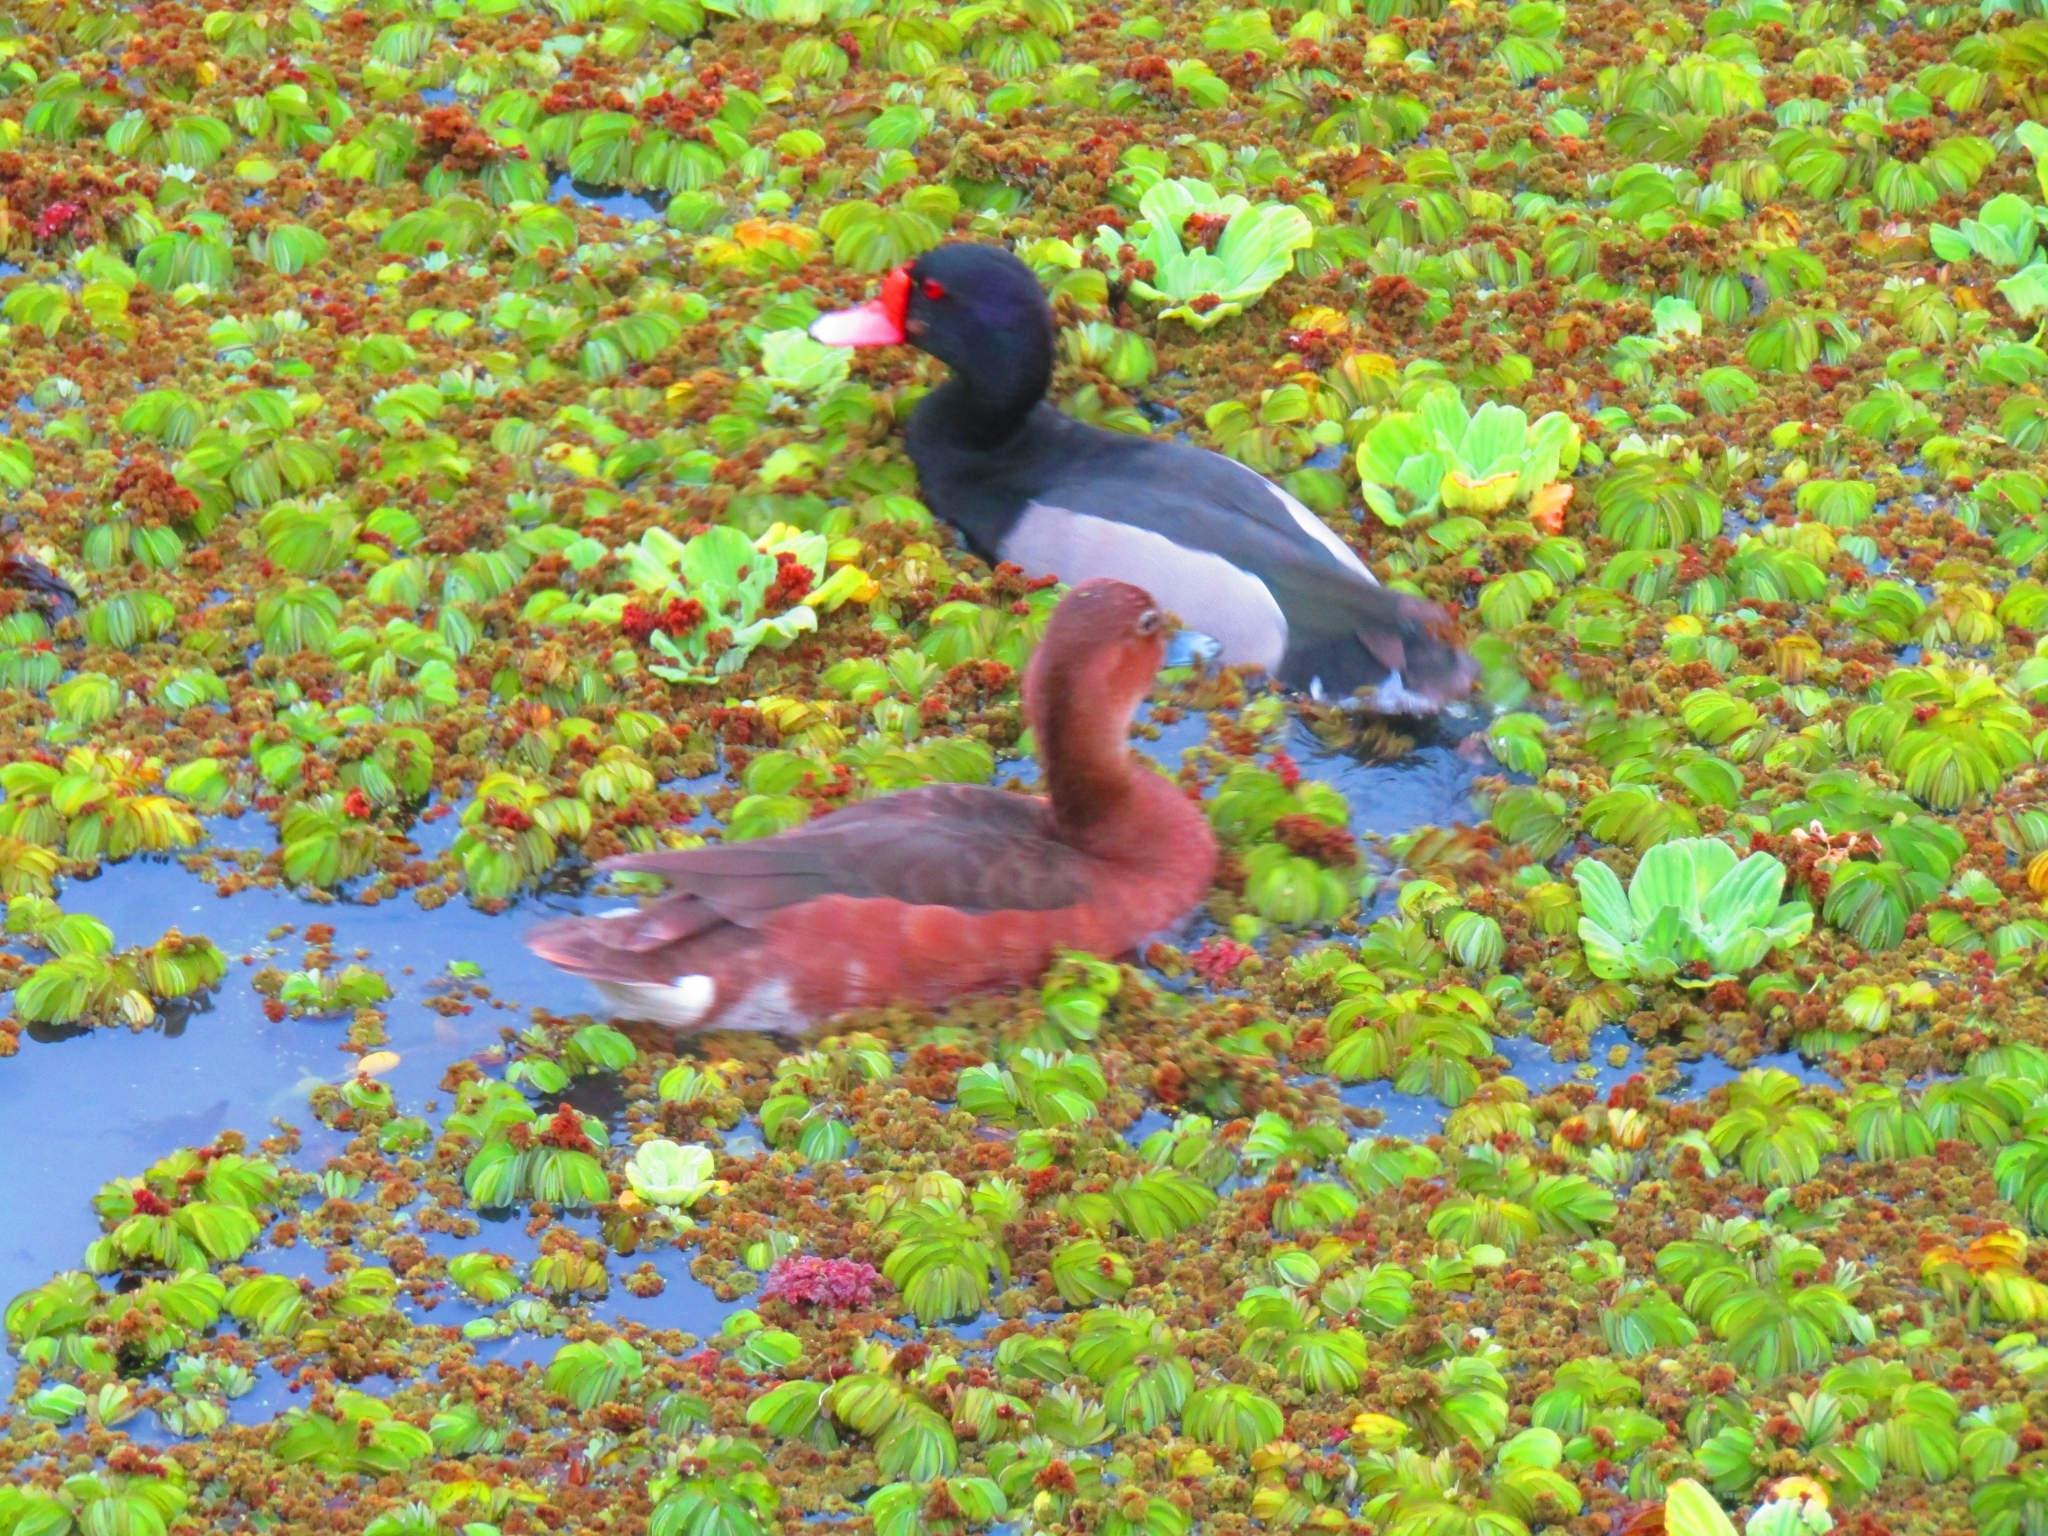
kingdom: Animalia
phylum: Chordata
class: Aves
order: Anseriformes
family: Anatidae
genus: Netta
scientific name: Netta peposaca
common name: Rosy-billed pochard
